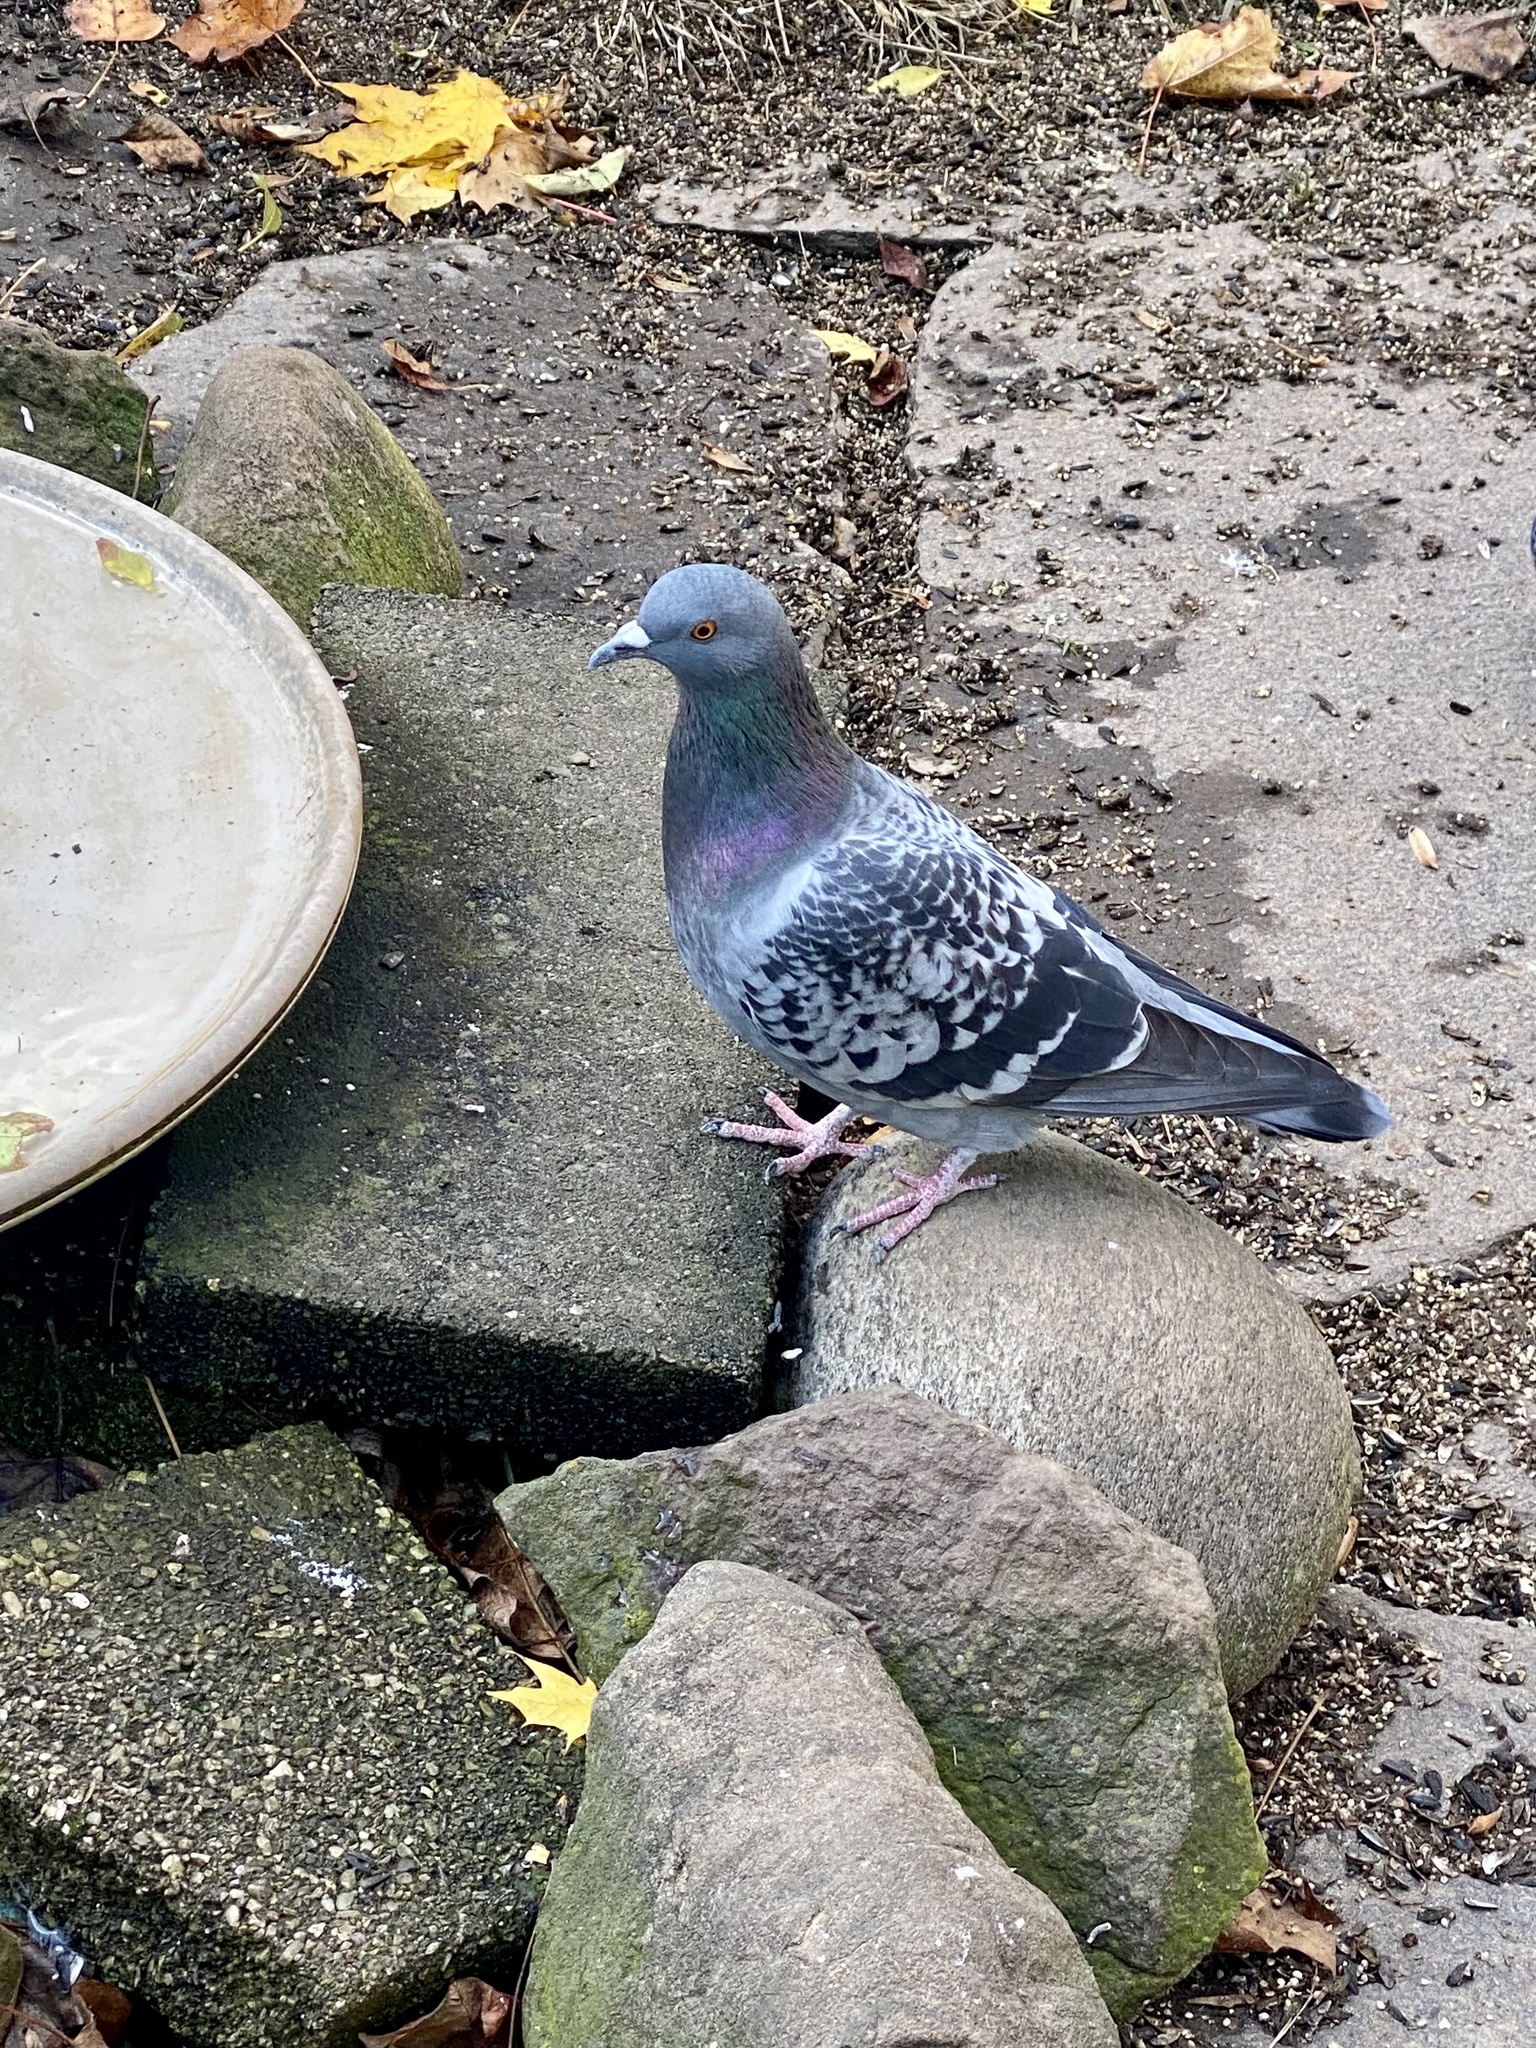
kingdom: Animalia
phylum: Chordata
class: Aves
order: Columbiformes
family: Columbidae
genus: Columba
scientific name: Columba livia
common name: Rock pigeon
